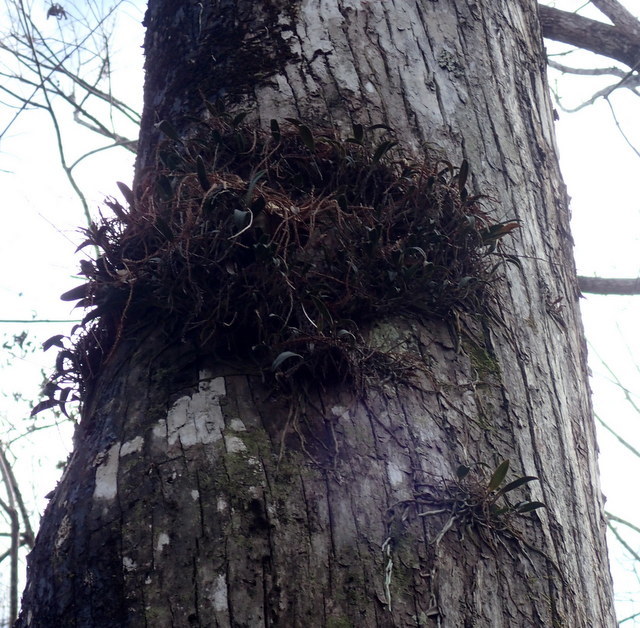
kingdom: Plantae
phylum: Tracheophyta
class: Liliopsida
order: Asparagales
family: Orchidaceae
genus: Epidendrum
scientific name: Epidendrum conopseum
